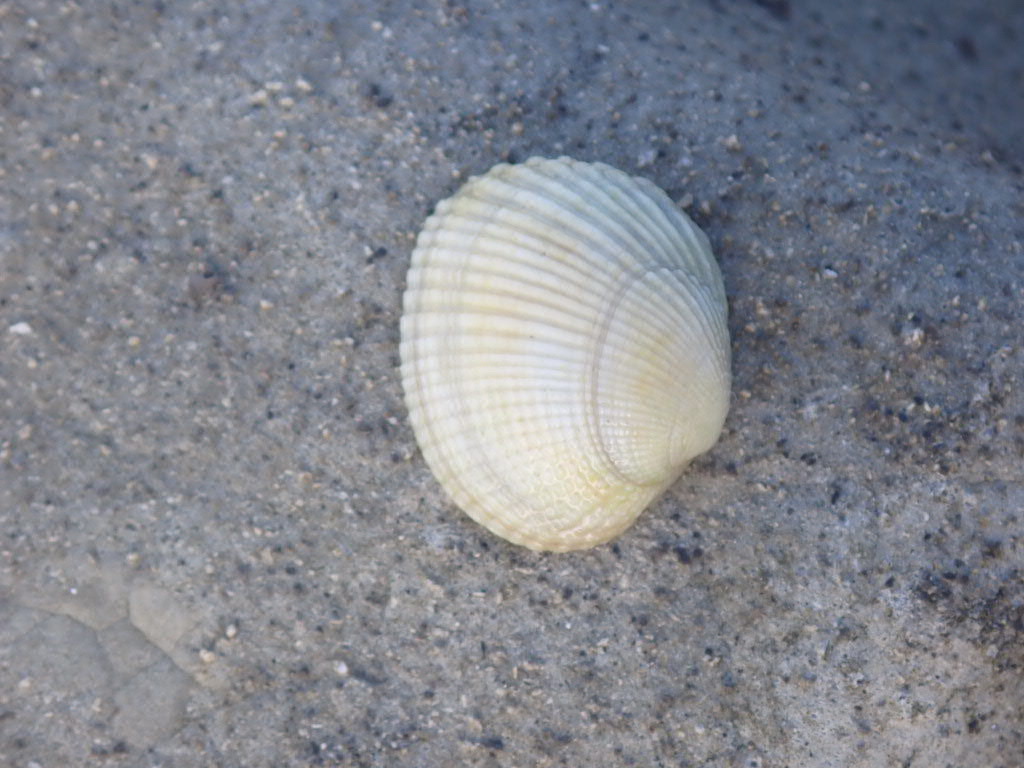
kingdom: Animalia
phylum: Mollusca
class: Bivalvia
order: Venerida
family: Veneridae
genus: Leukoma
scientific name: Leukoma crassicosta
